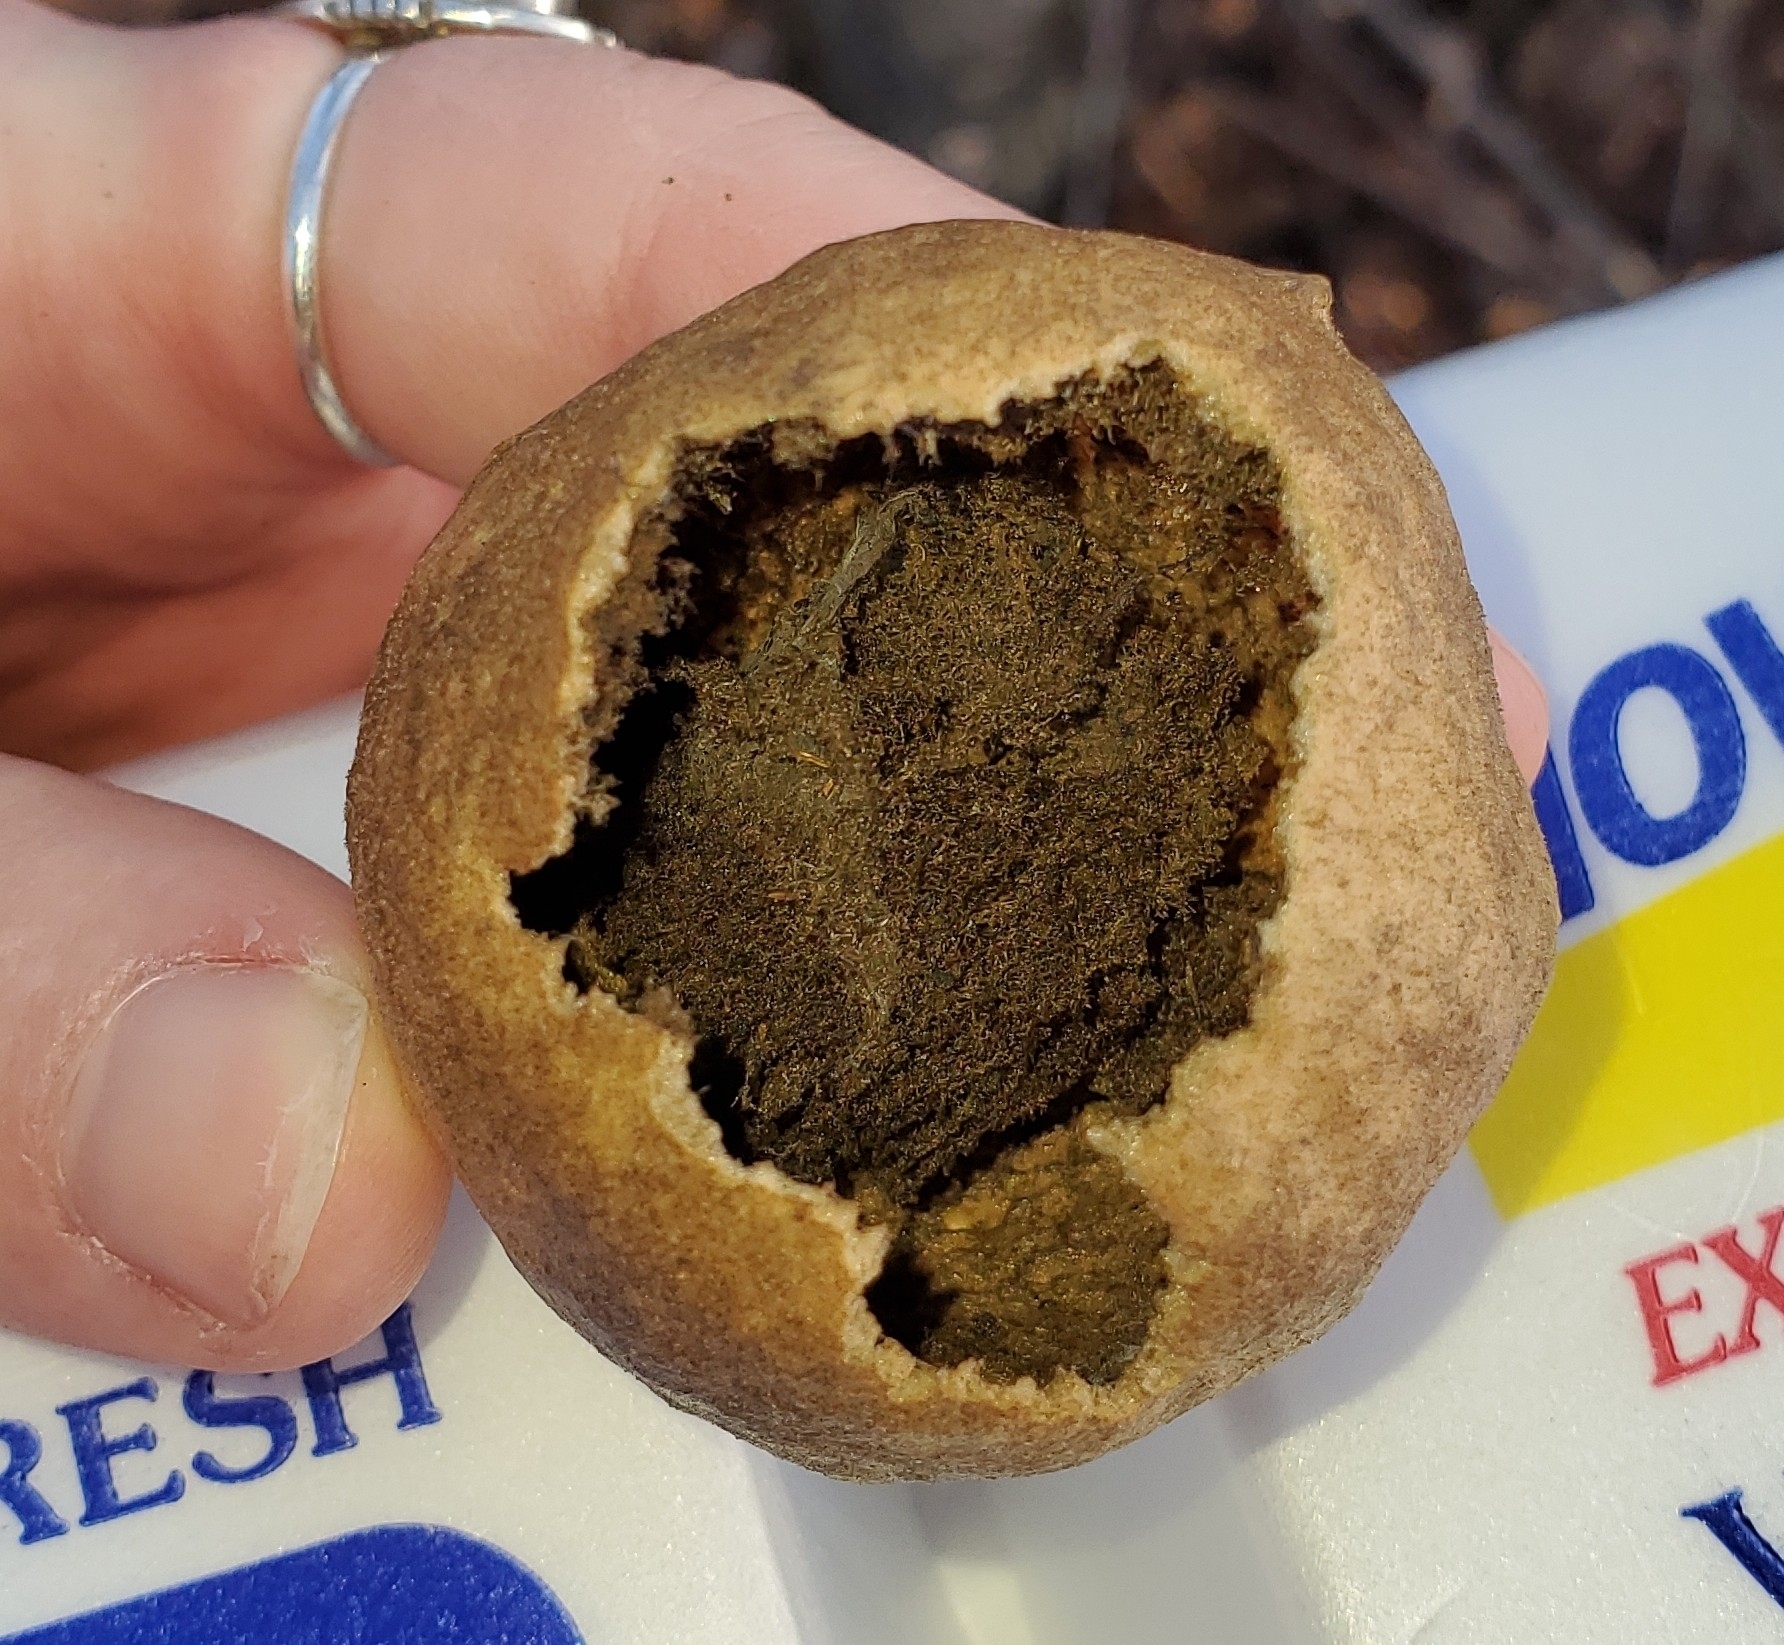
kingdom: Animalia
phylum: Arthropoda
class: Insecta
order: Hymenoptera
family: Cynipidae
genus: Amphibolips
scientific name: Amphibolips
